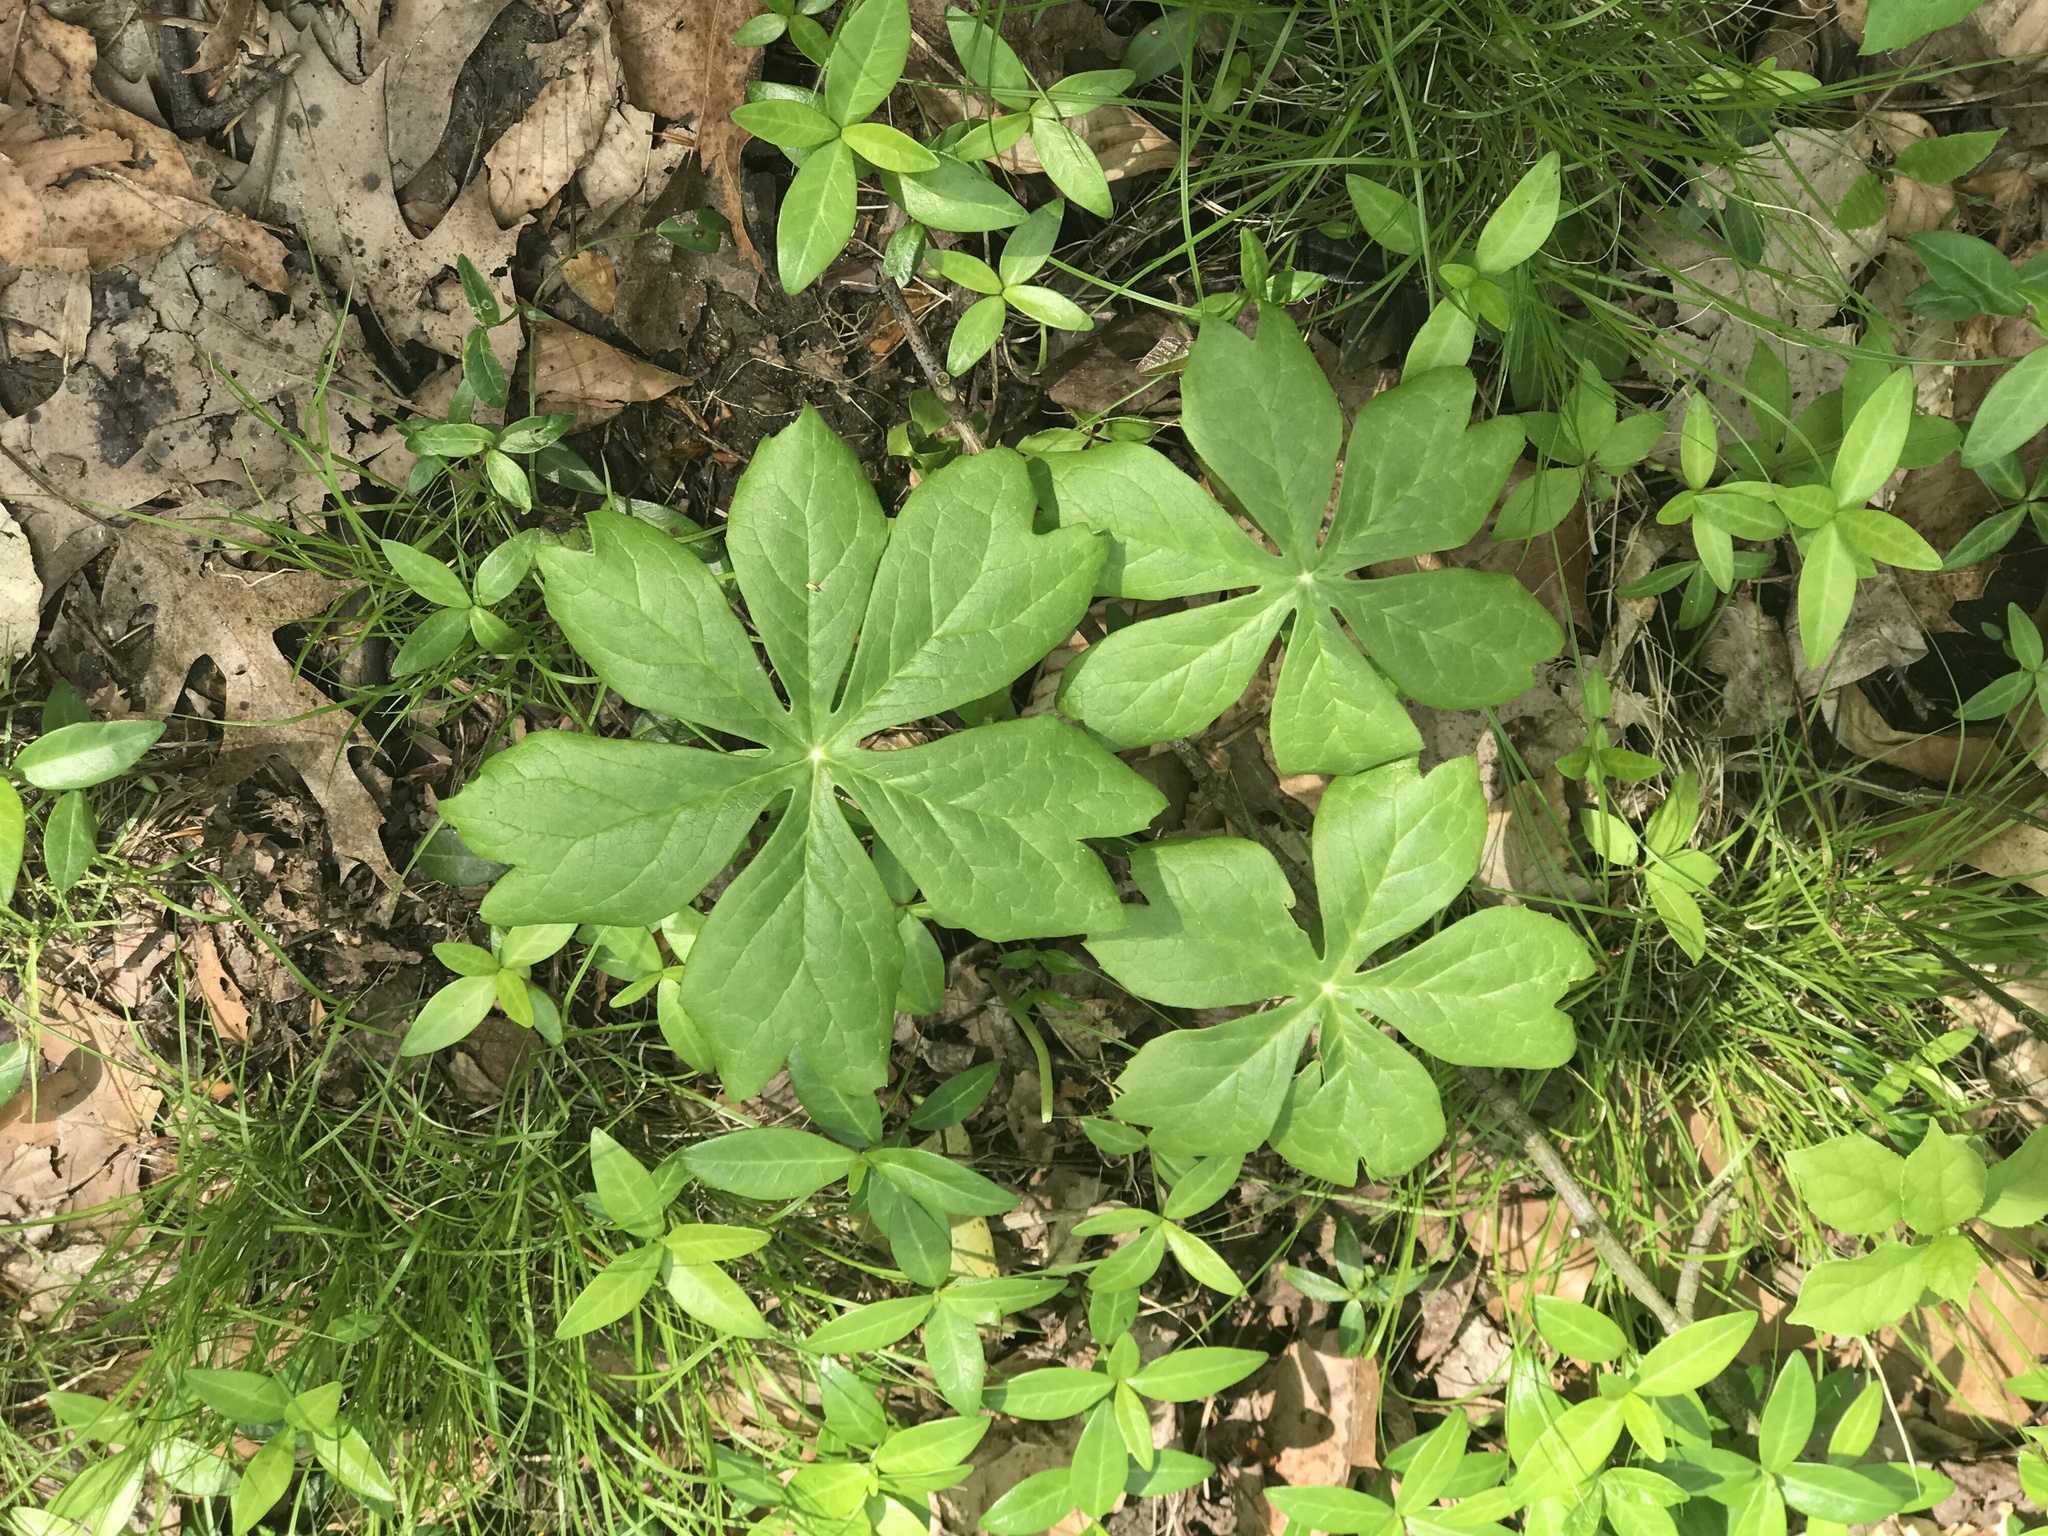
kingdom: Plantae
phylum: Tracheophyta
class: Magnoliopsida
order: Ranunculales
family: Berberidaceae
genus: Podophyllum
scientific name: Podophyllum peltatum
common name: Wild mandrake
